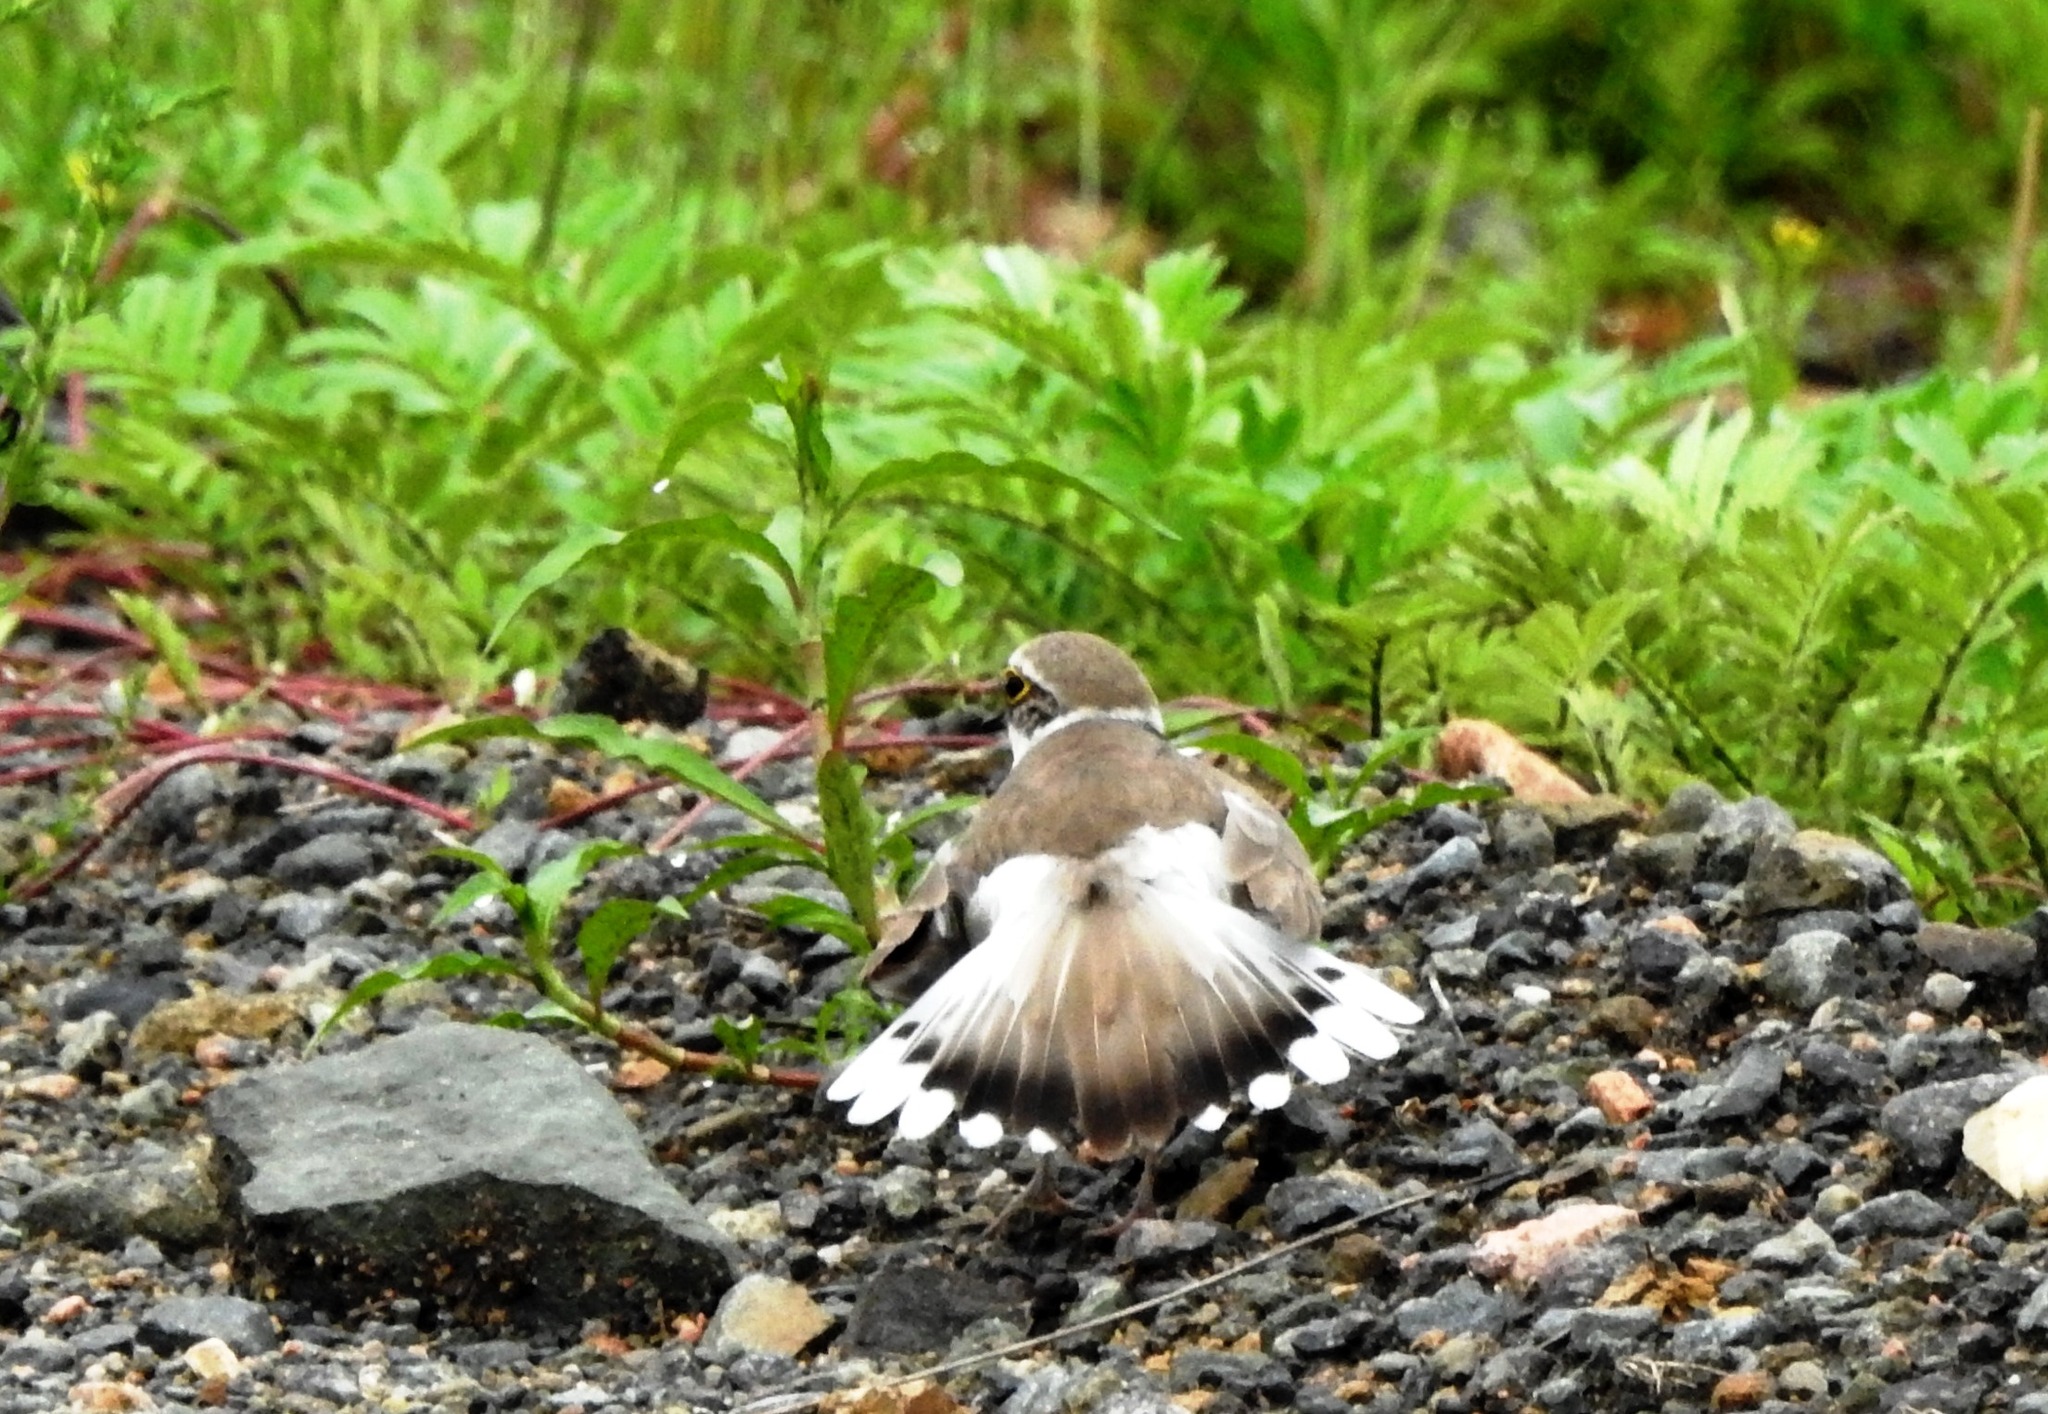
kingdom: Animalia
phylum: Chordata
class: Aves
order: Charadriiformes
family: Charadriidae
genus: Charadrius
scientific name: Charadrius dubius
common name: Little ringed plover
